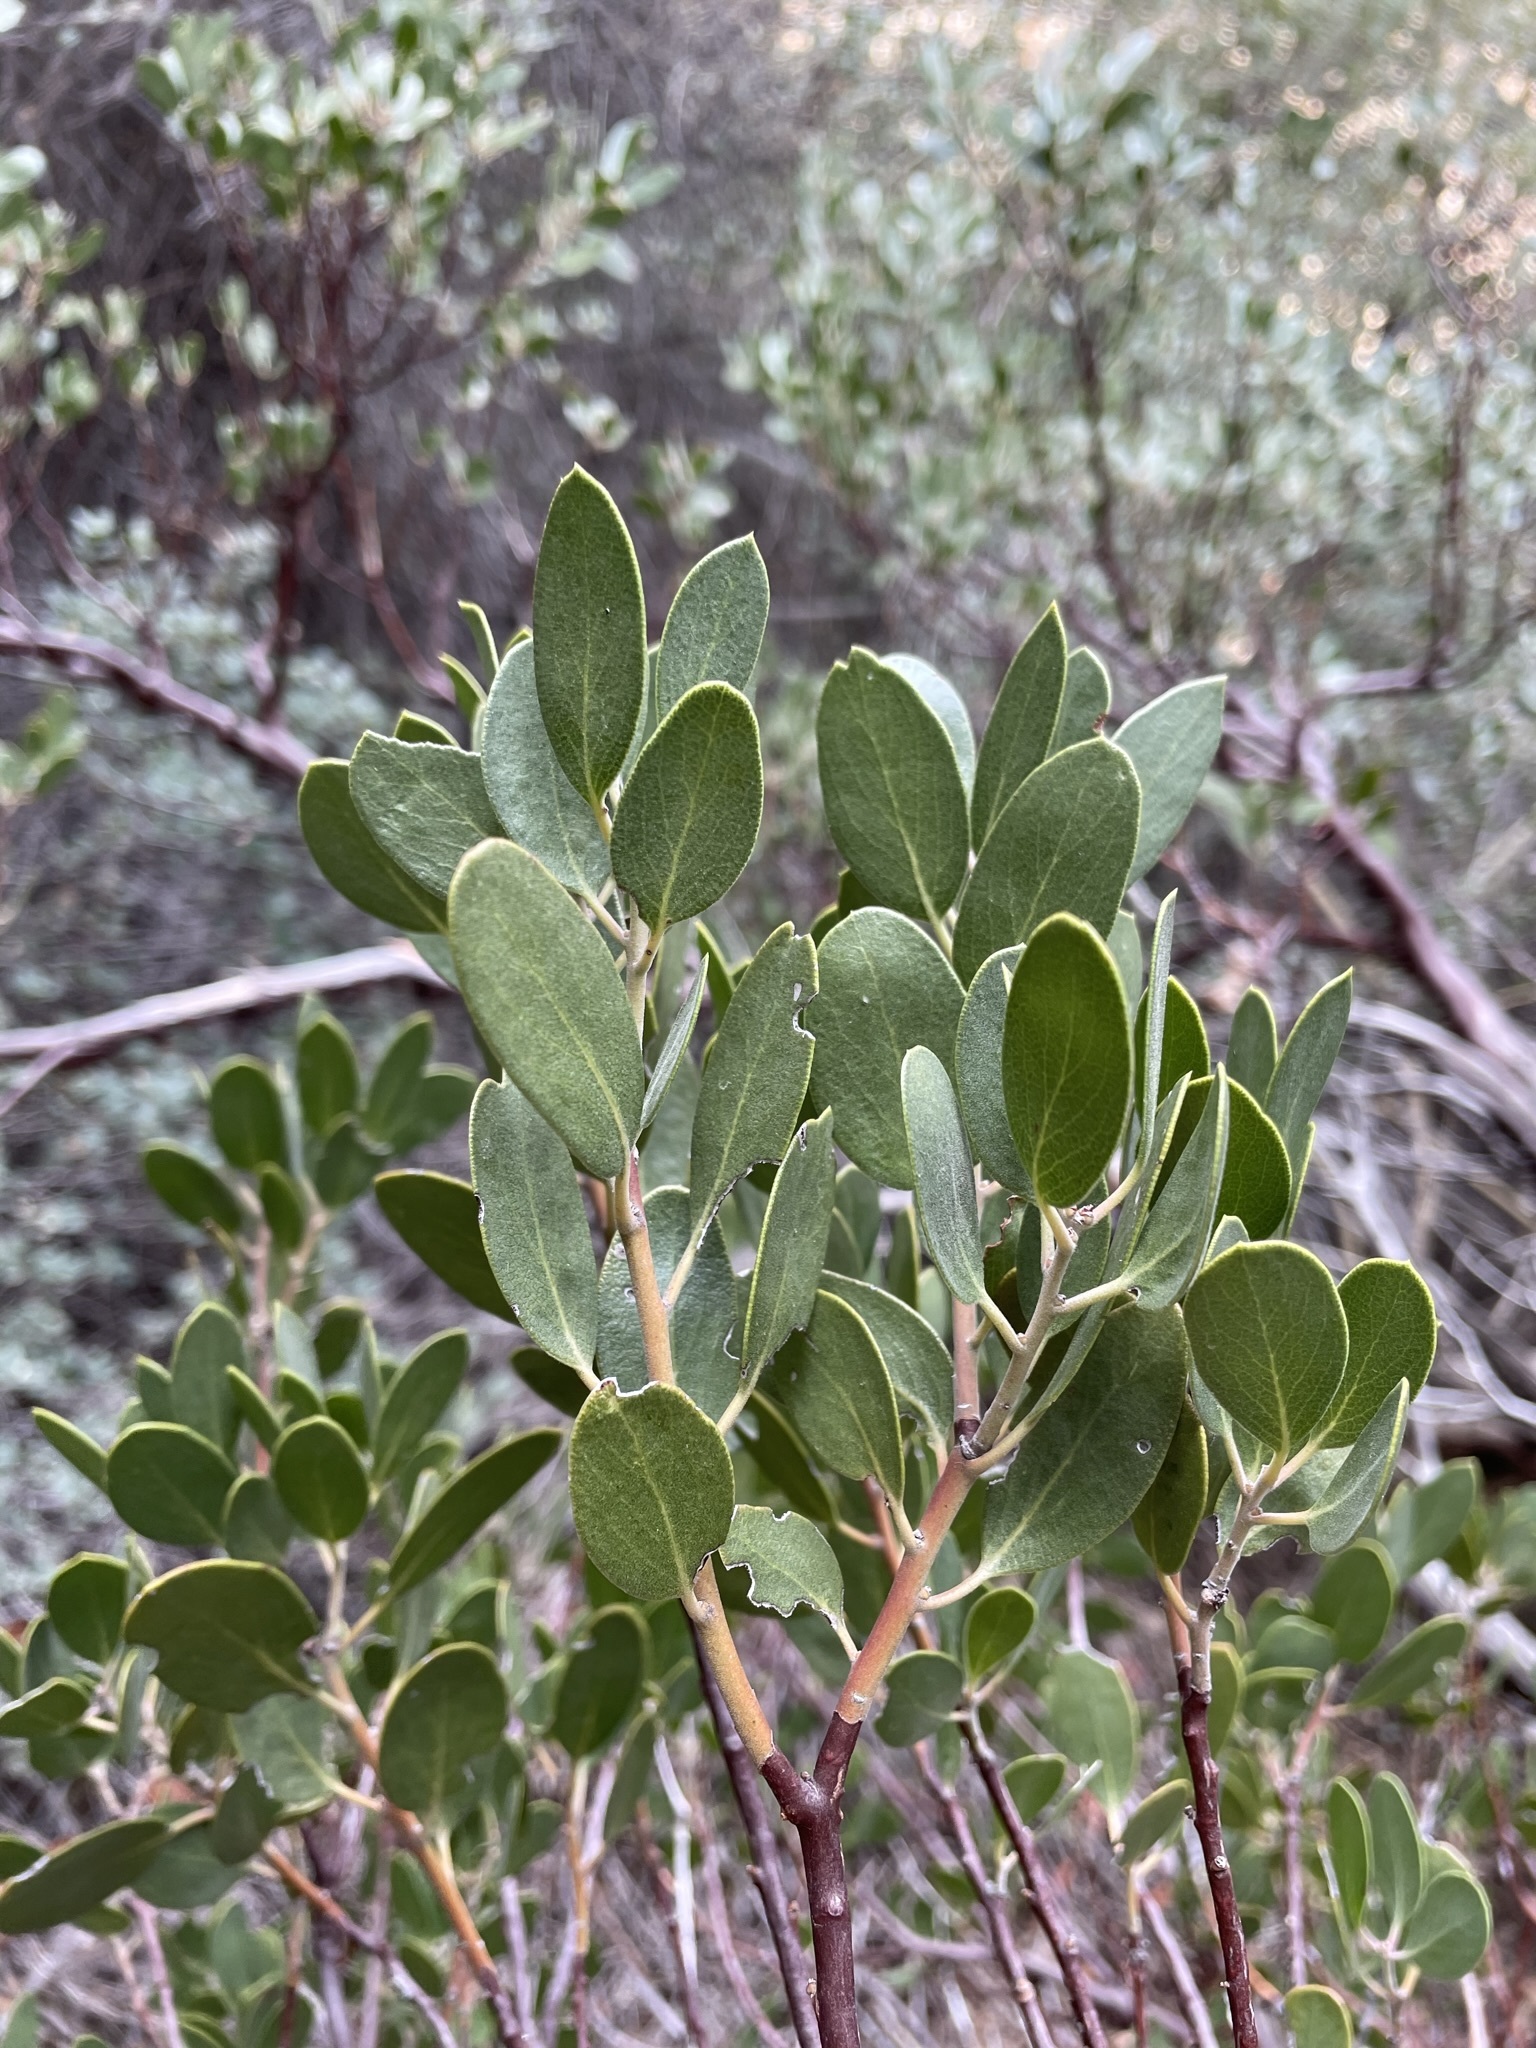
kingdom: Plantae
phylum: Tracheophyta
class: Magnoliopsida
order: Ericales
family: Ericaceae
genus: Arctostaphylos
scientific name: Arctostaphylos pungens
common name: Mexican manzanita
